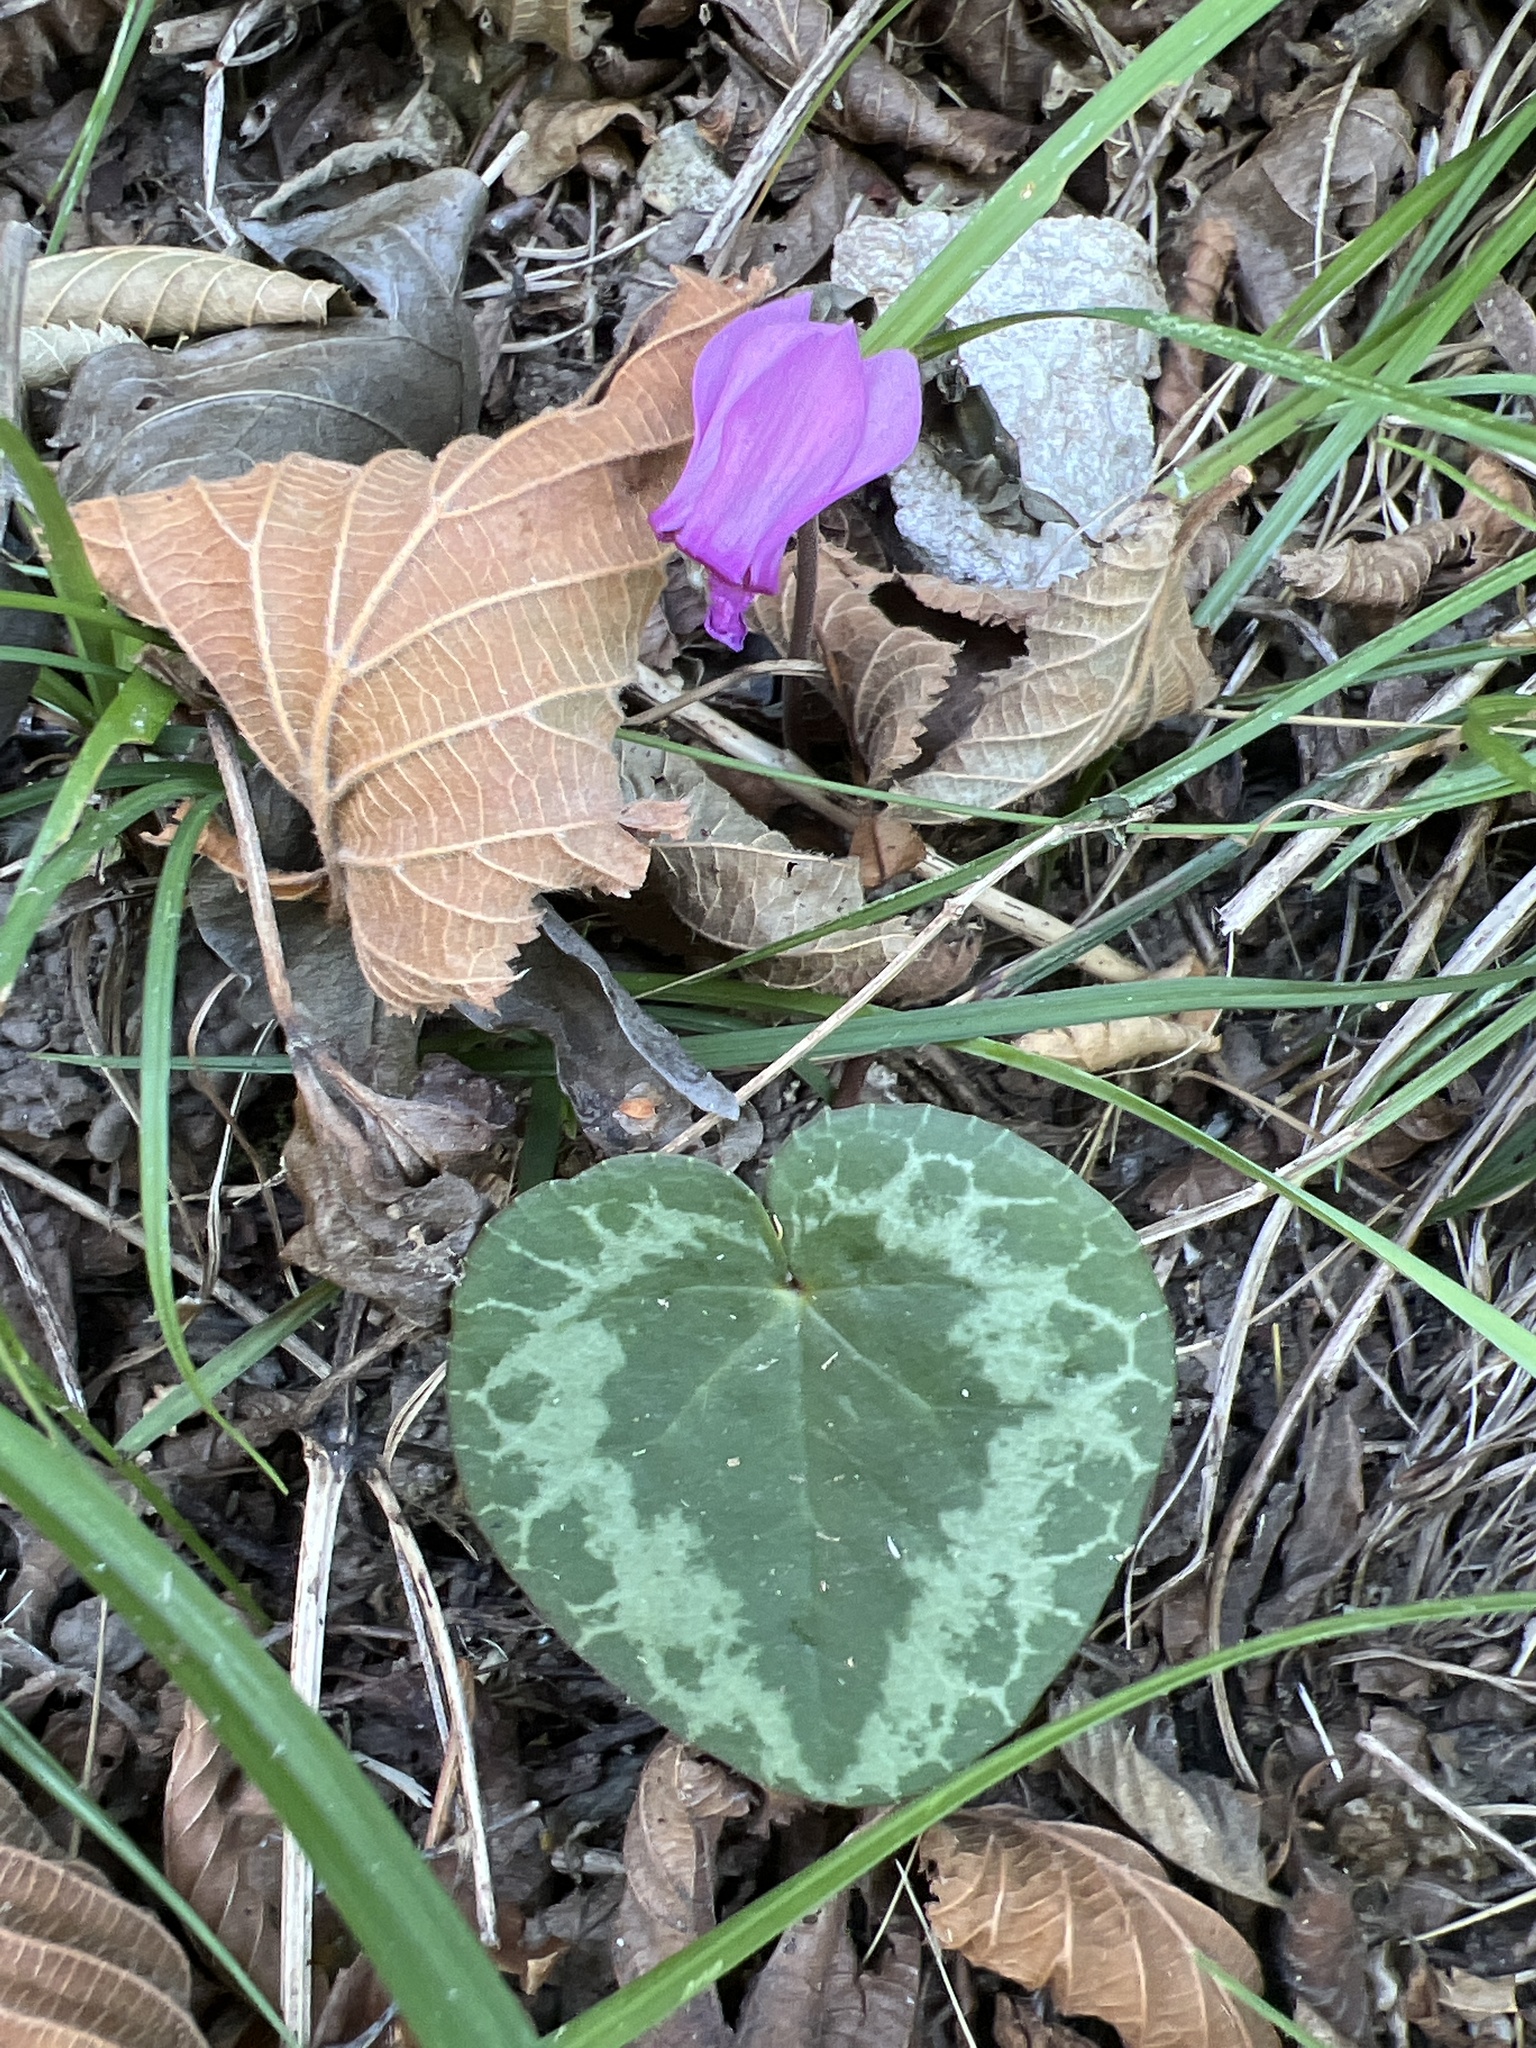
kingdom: Plantae
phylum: Tracheophyta
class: Magnoliopsida
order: Ericales
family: Primulaceae
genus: Cyclamen
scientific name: Cyclamen purpurascens
